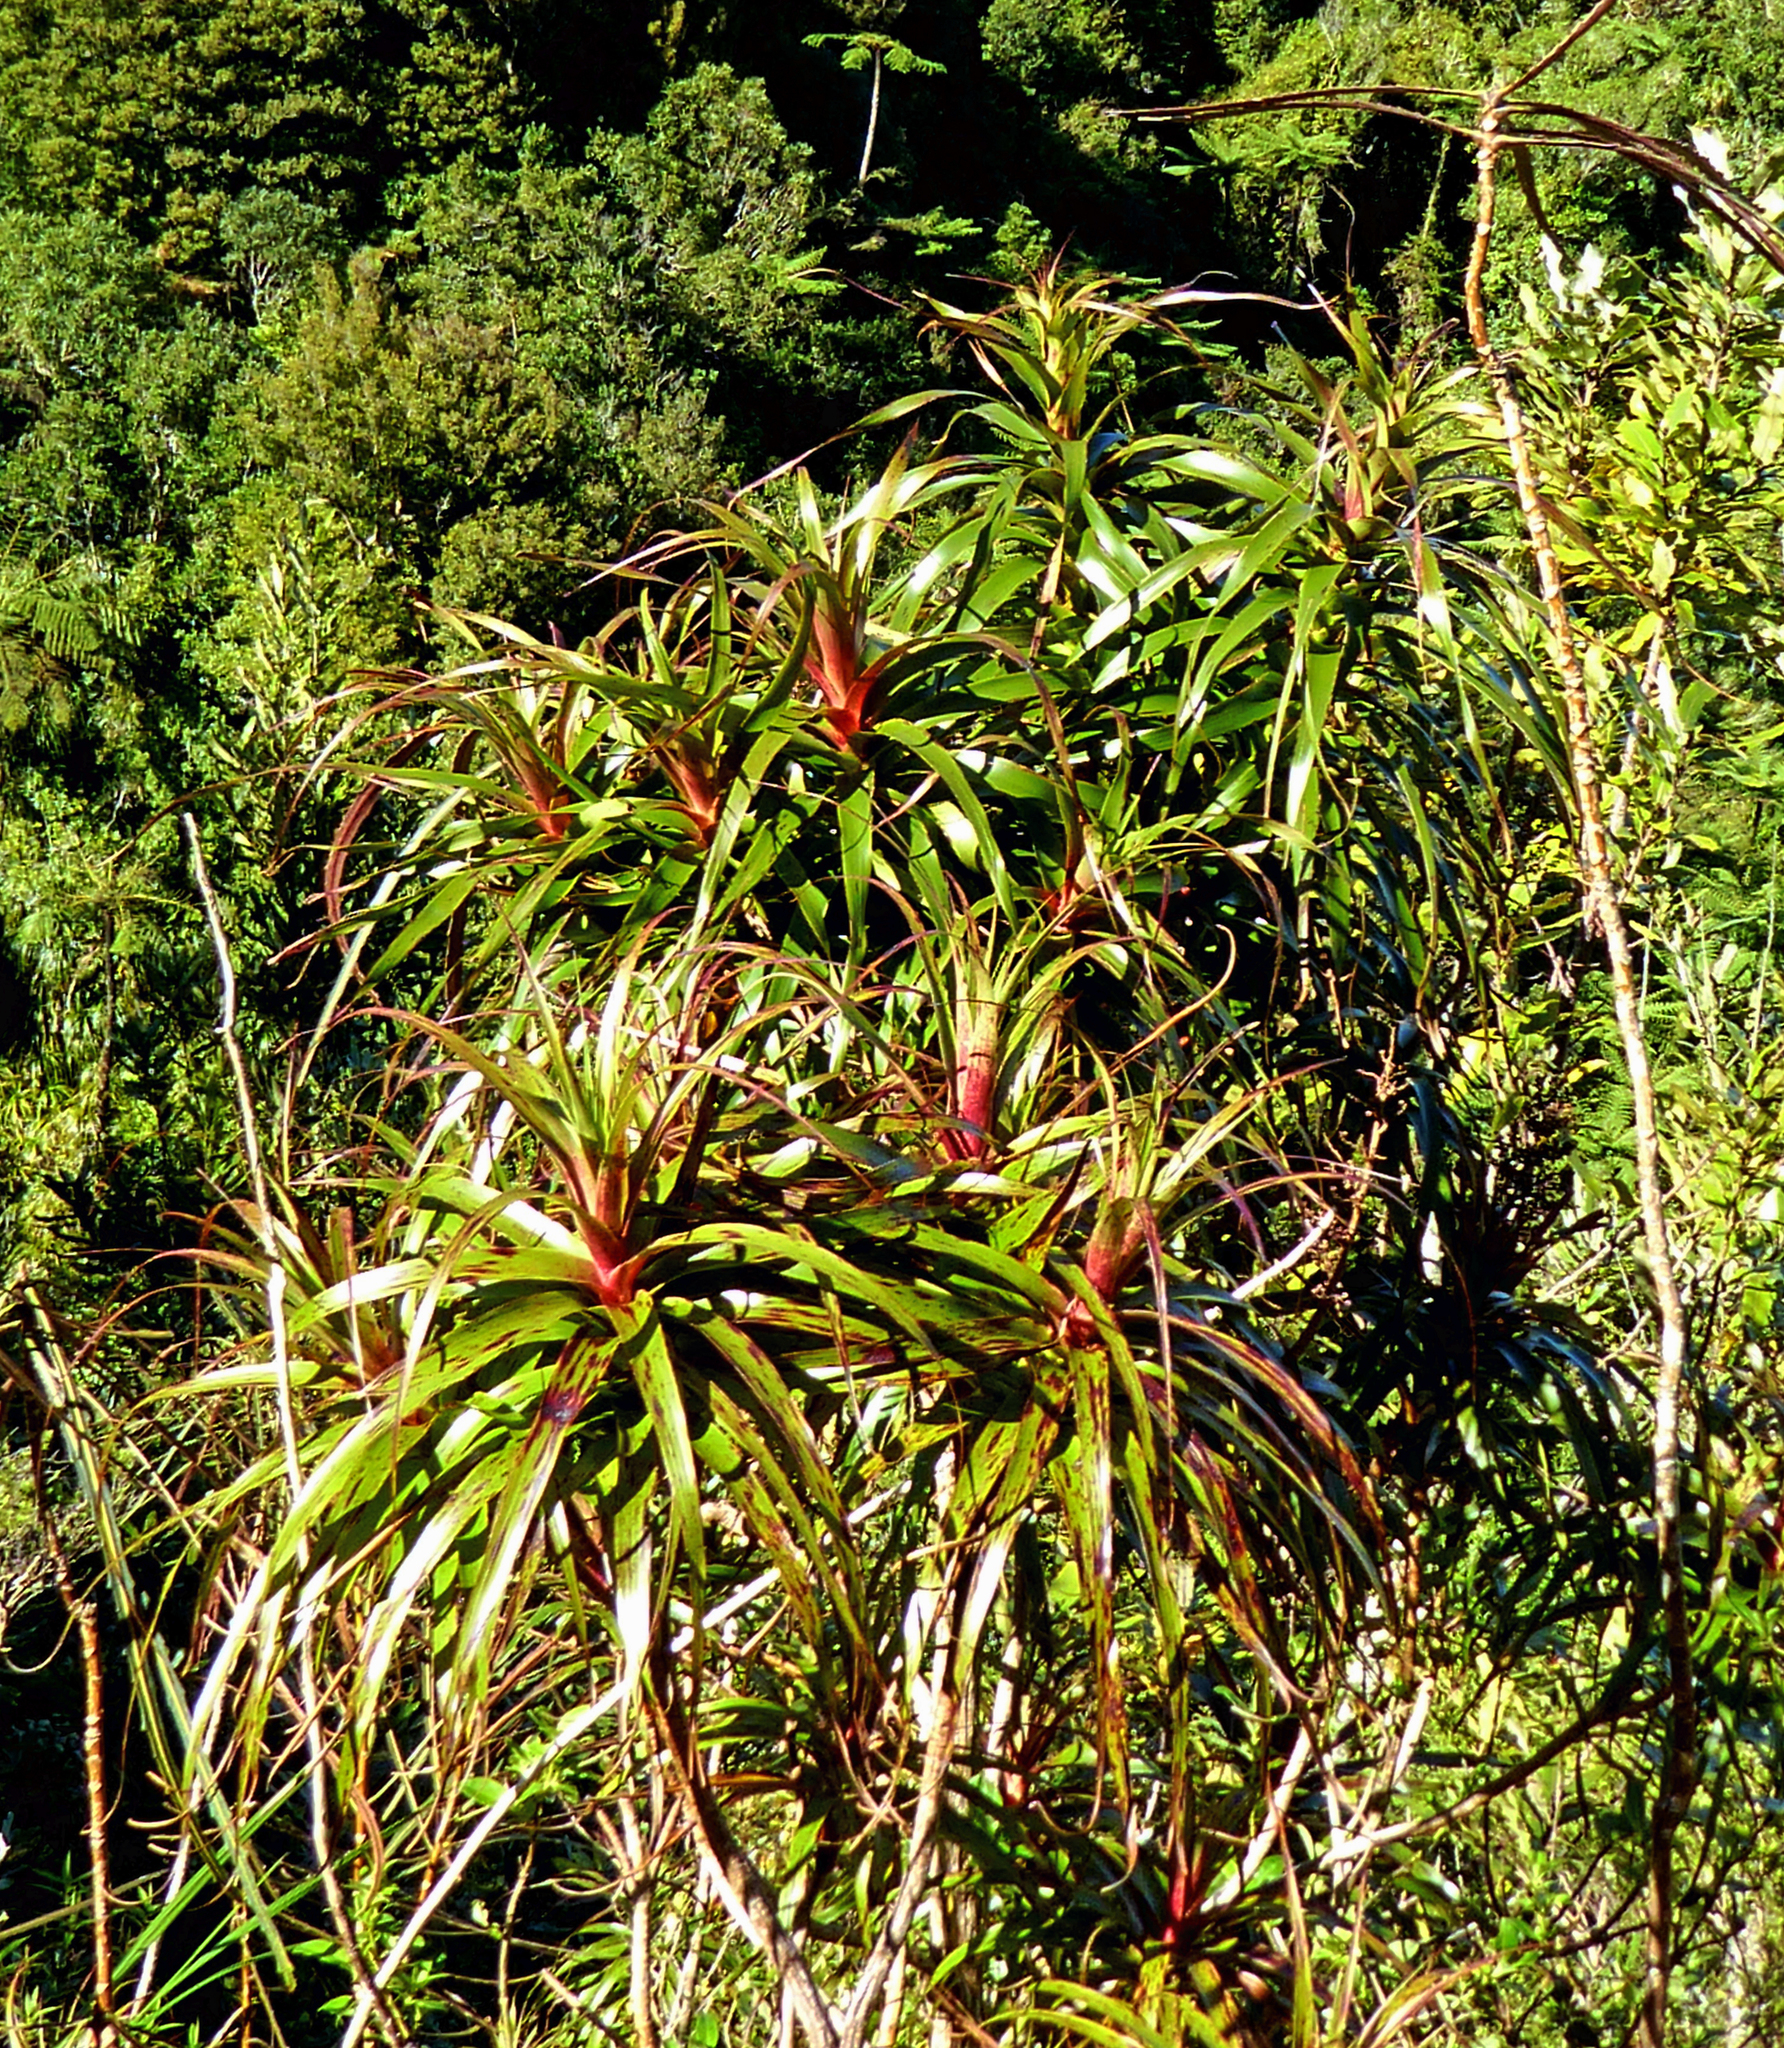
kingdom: Plantae
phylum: Tracheophyta
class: Magnoliopsida
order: Ericales
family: Ericaceae
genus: Dracophyllum
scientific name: Dracophyllum traversii
